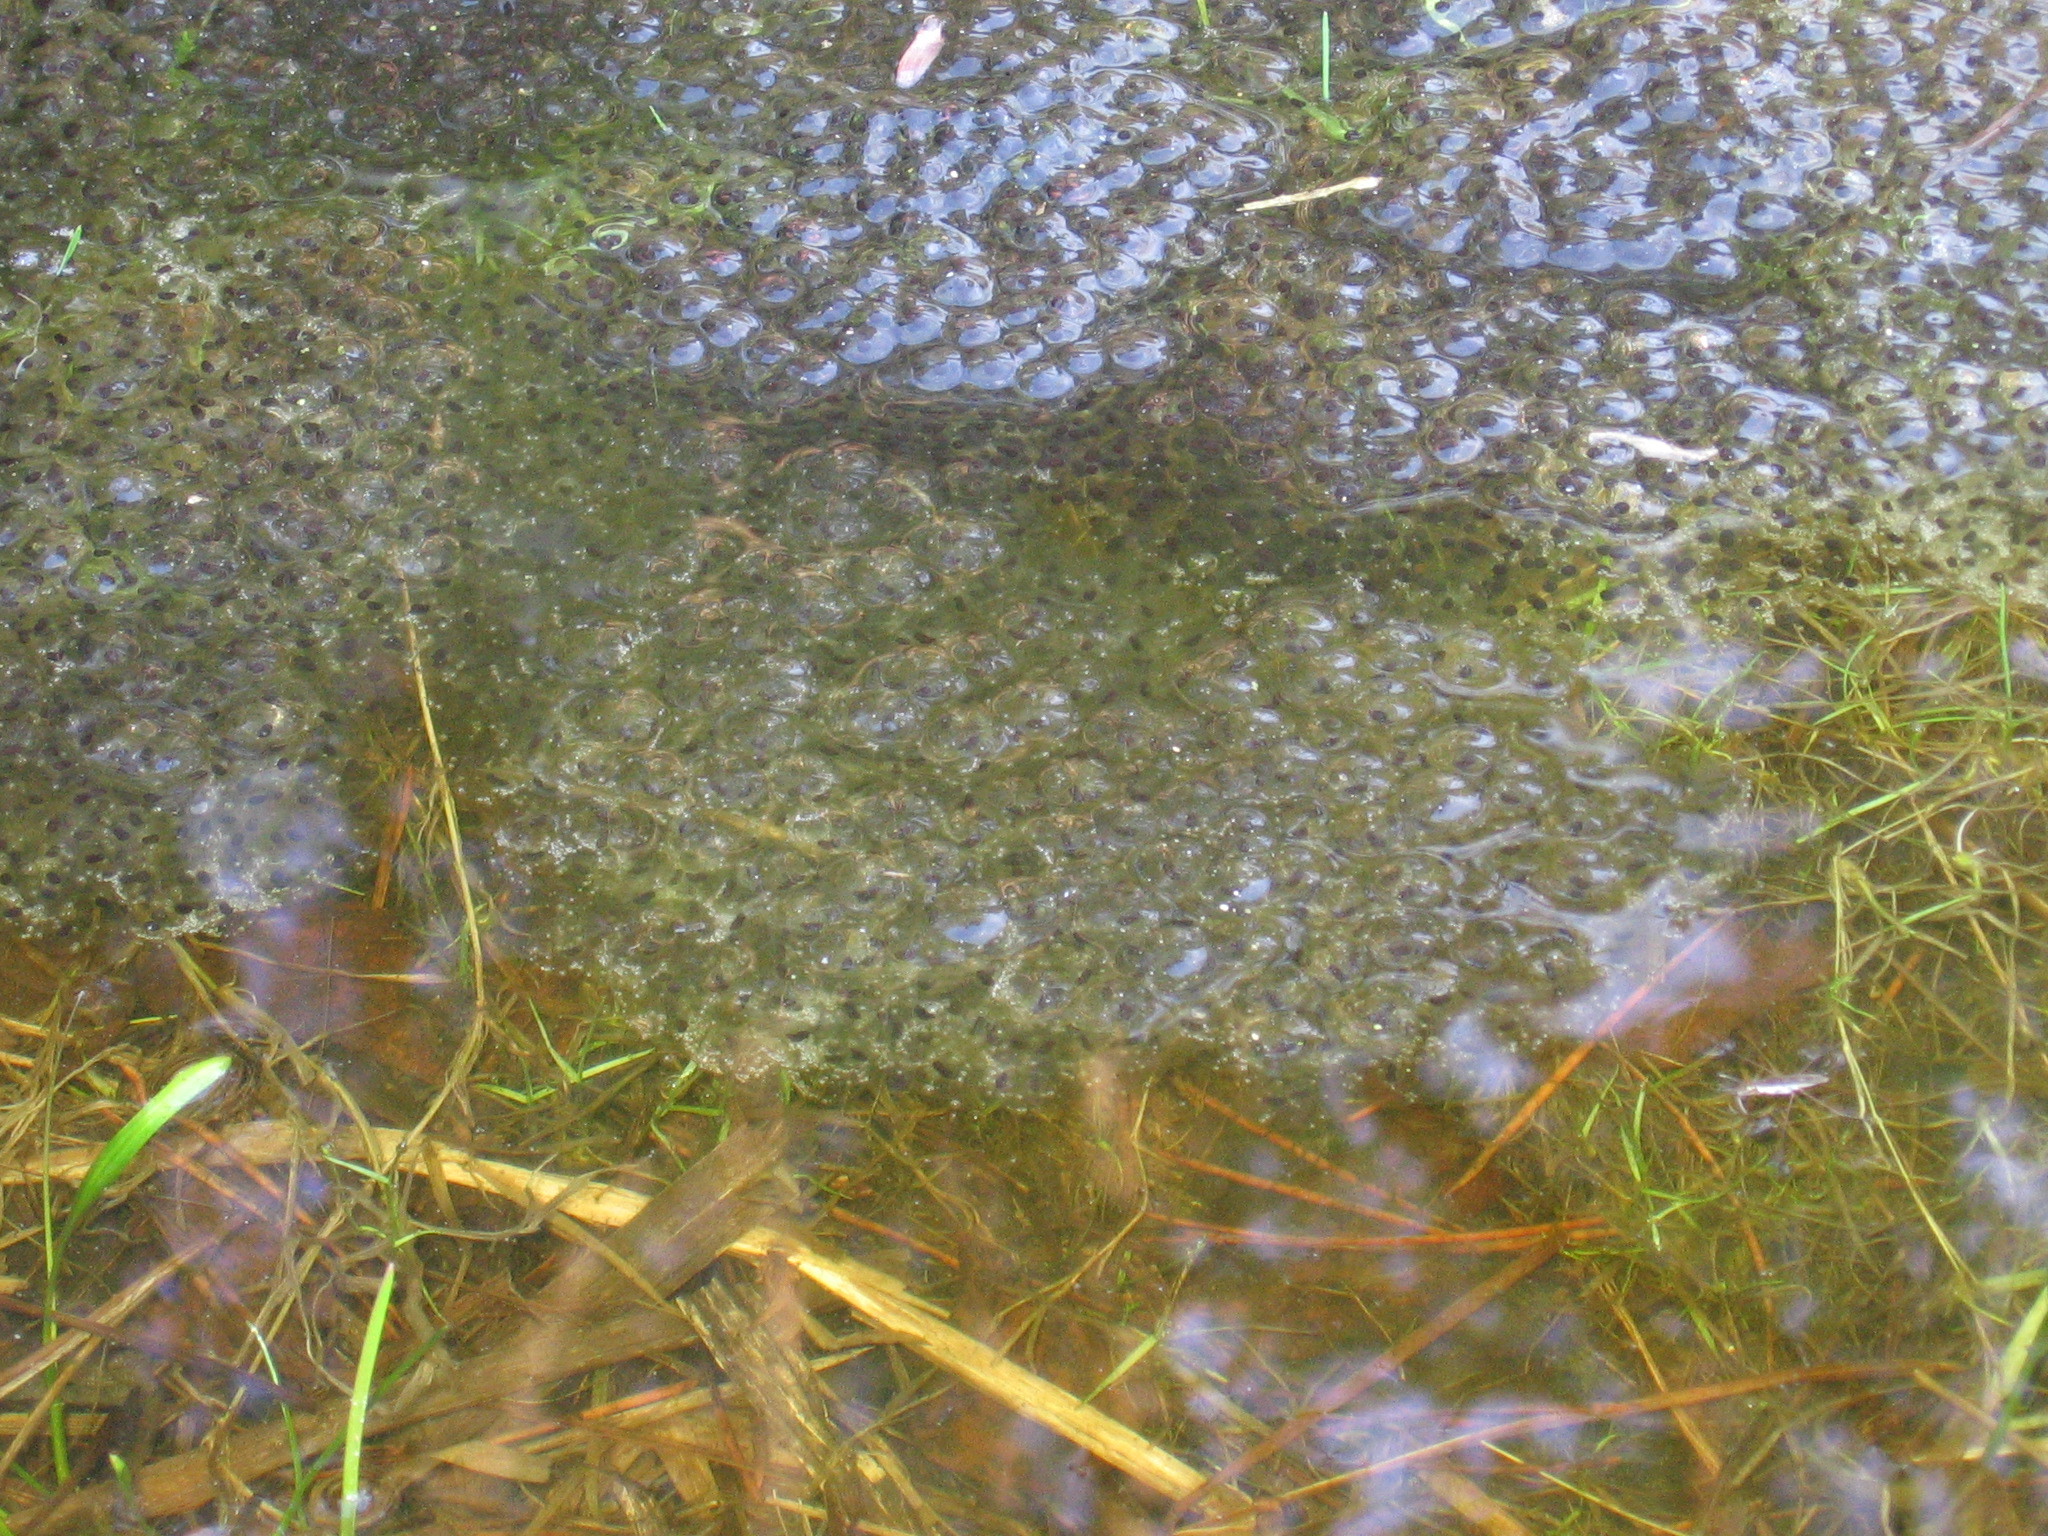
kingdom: Animalia
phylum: Chordata
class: Amphibia
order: Anura
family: Ranidae
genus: Rana
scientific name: Rana
